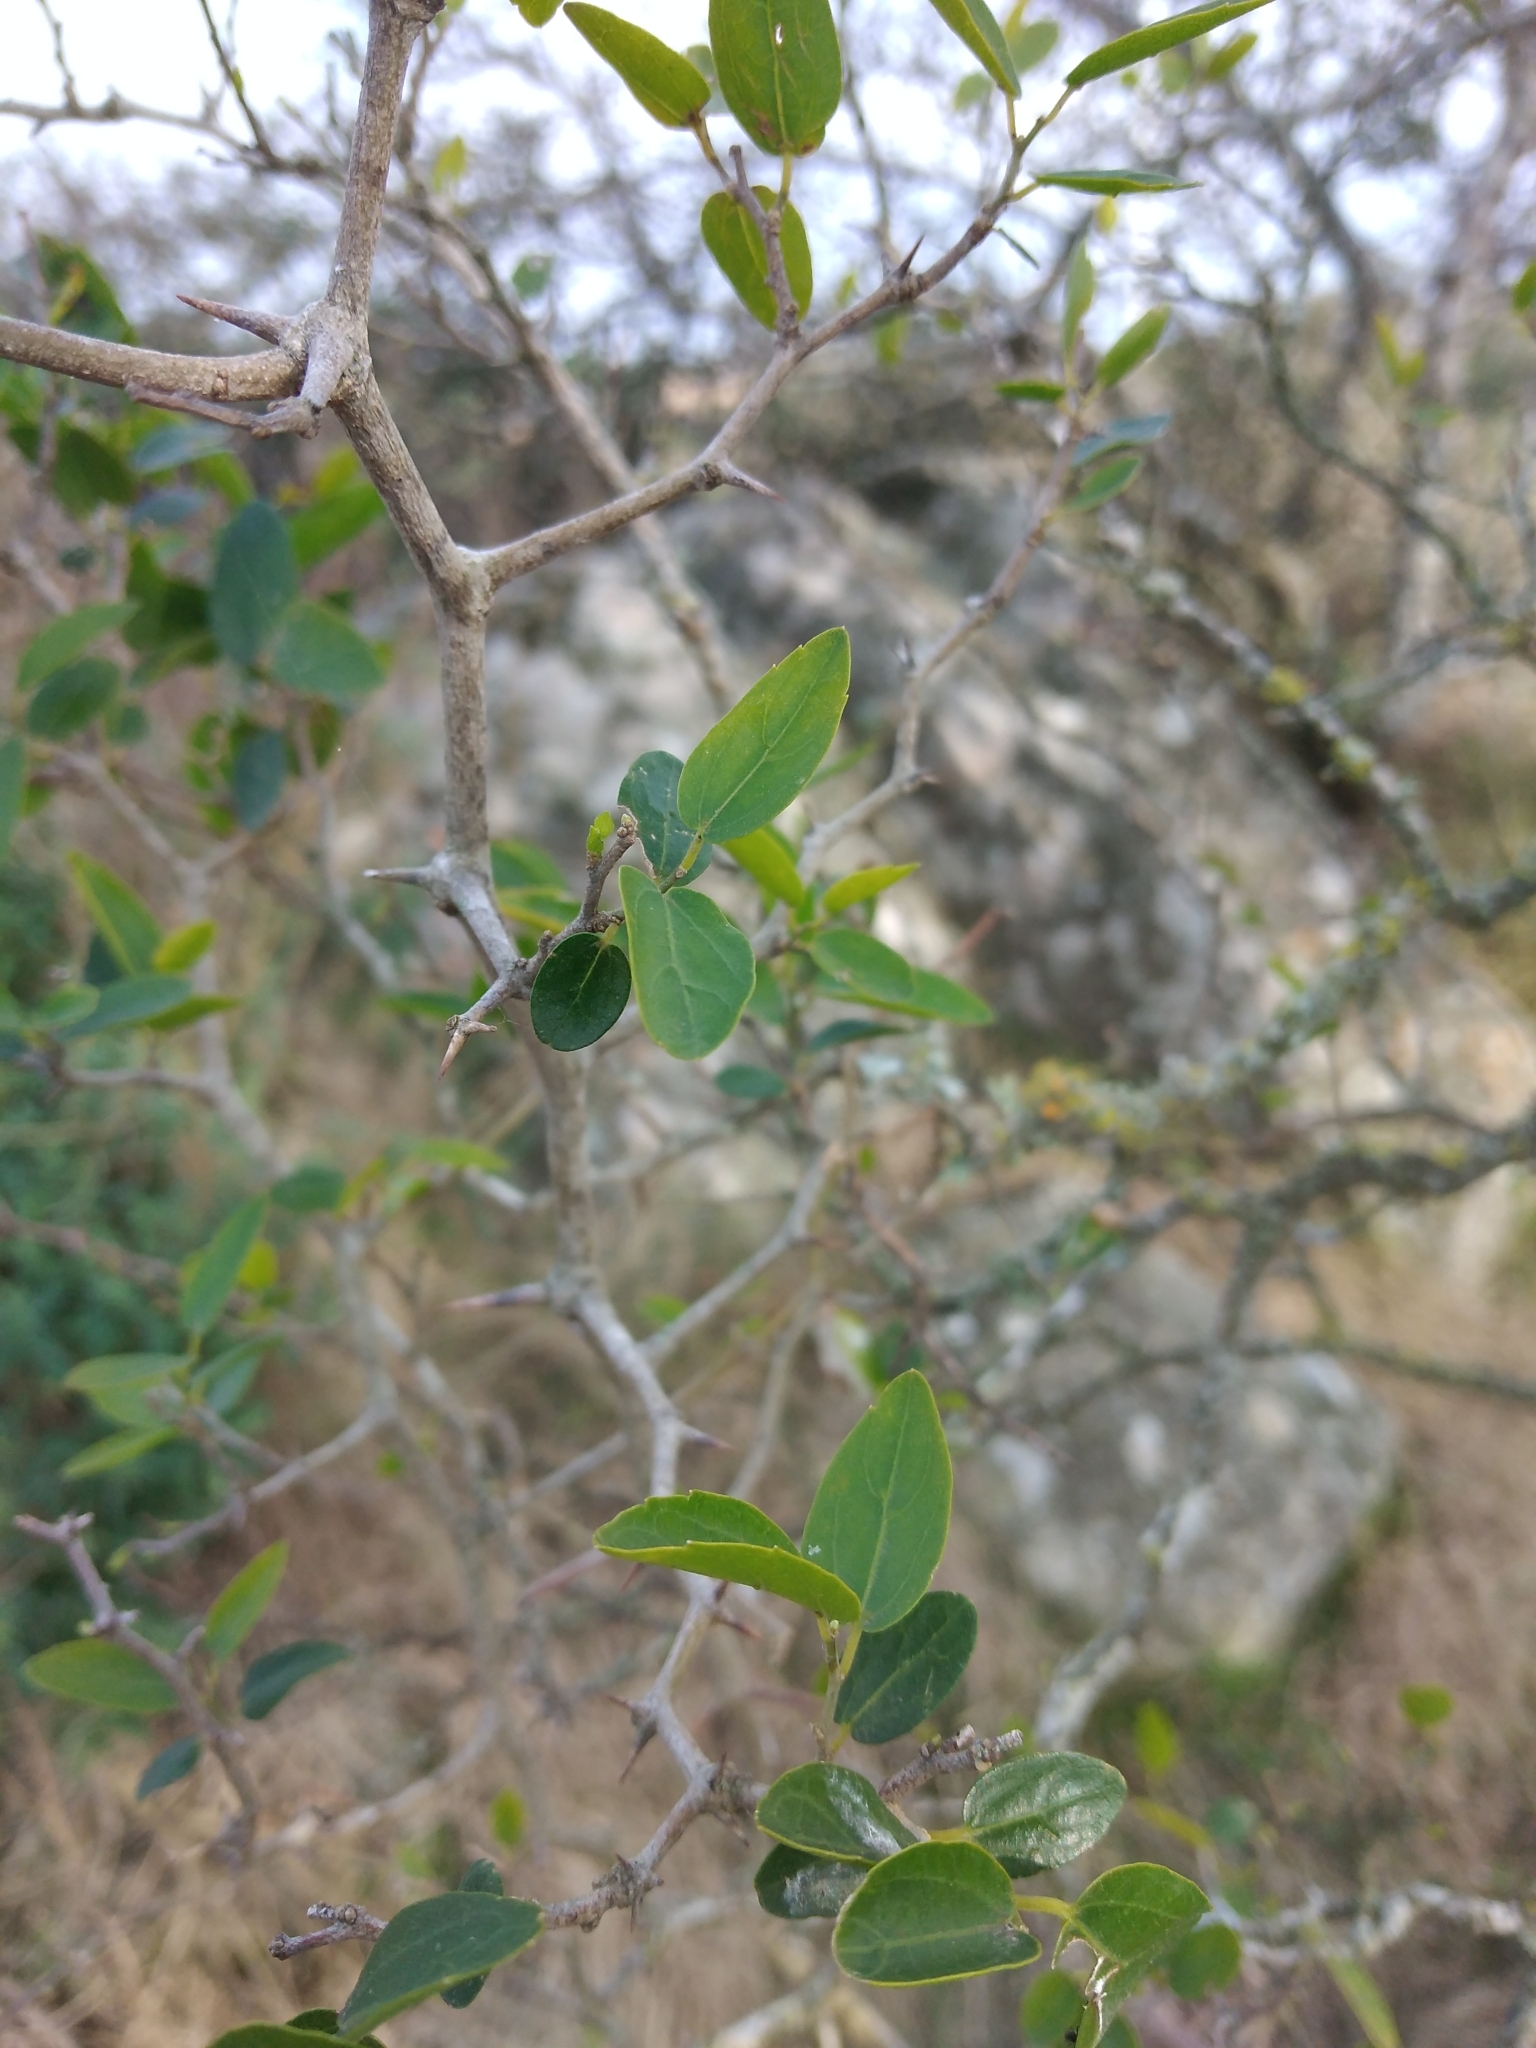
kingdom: Plantae
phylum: Tracheophyta
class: Magnoliopsida
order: Rosales
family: Cannabaceae
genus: Celtis
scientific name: Celtis tala
